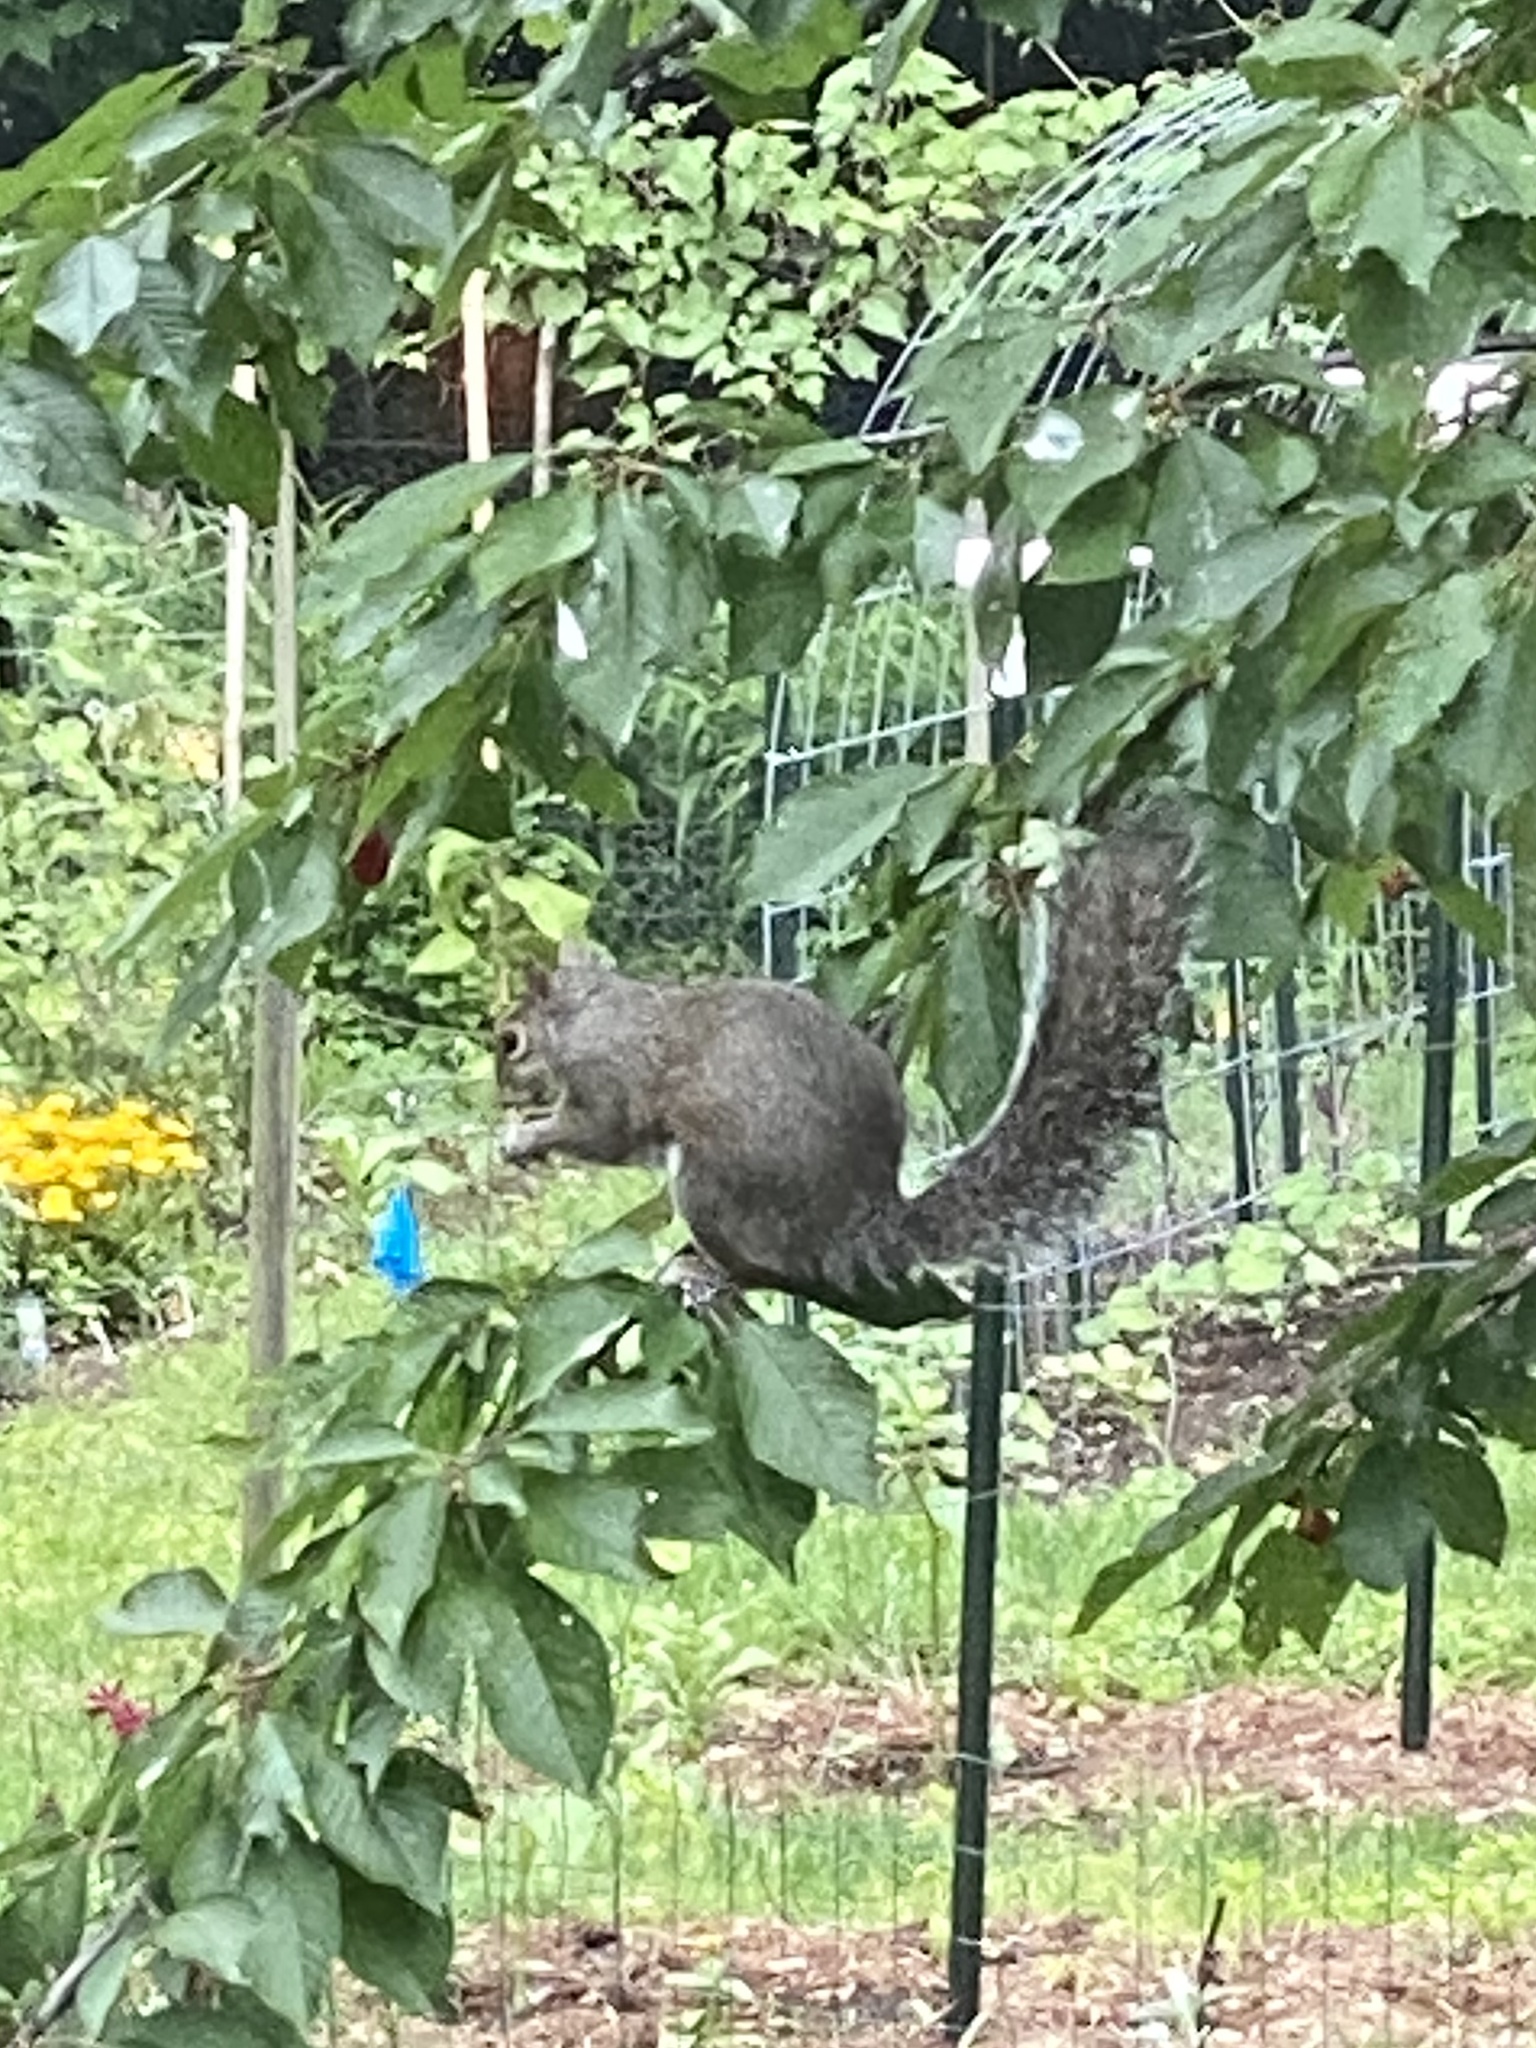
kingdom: Animalia
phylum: Chordata
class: Mammalia
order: Rodentia
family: Sciuridae
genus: Sciurus
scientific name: Sciurus carolinensis
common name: Eastern gray squirrel
